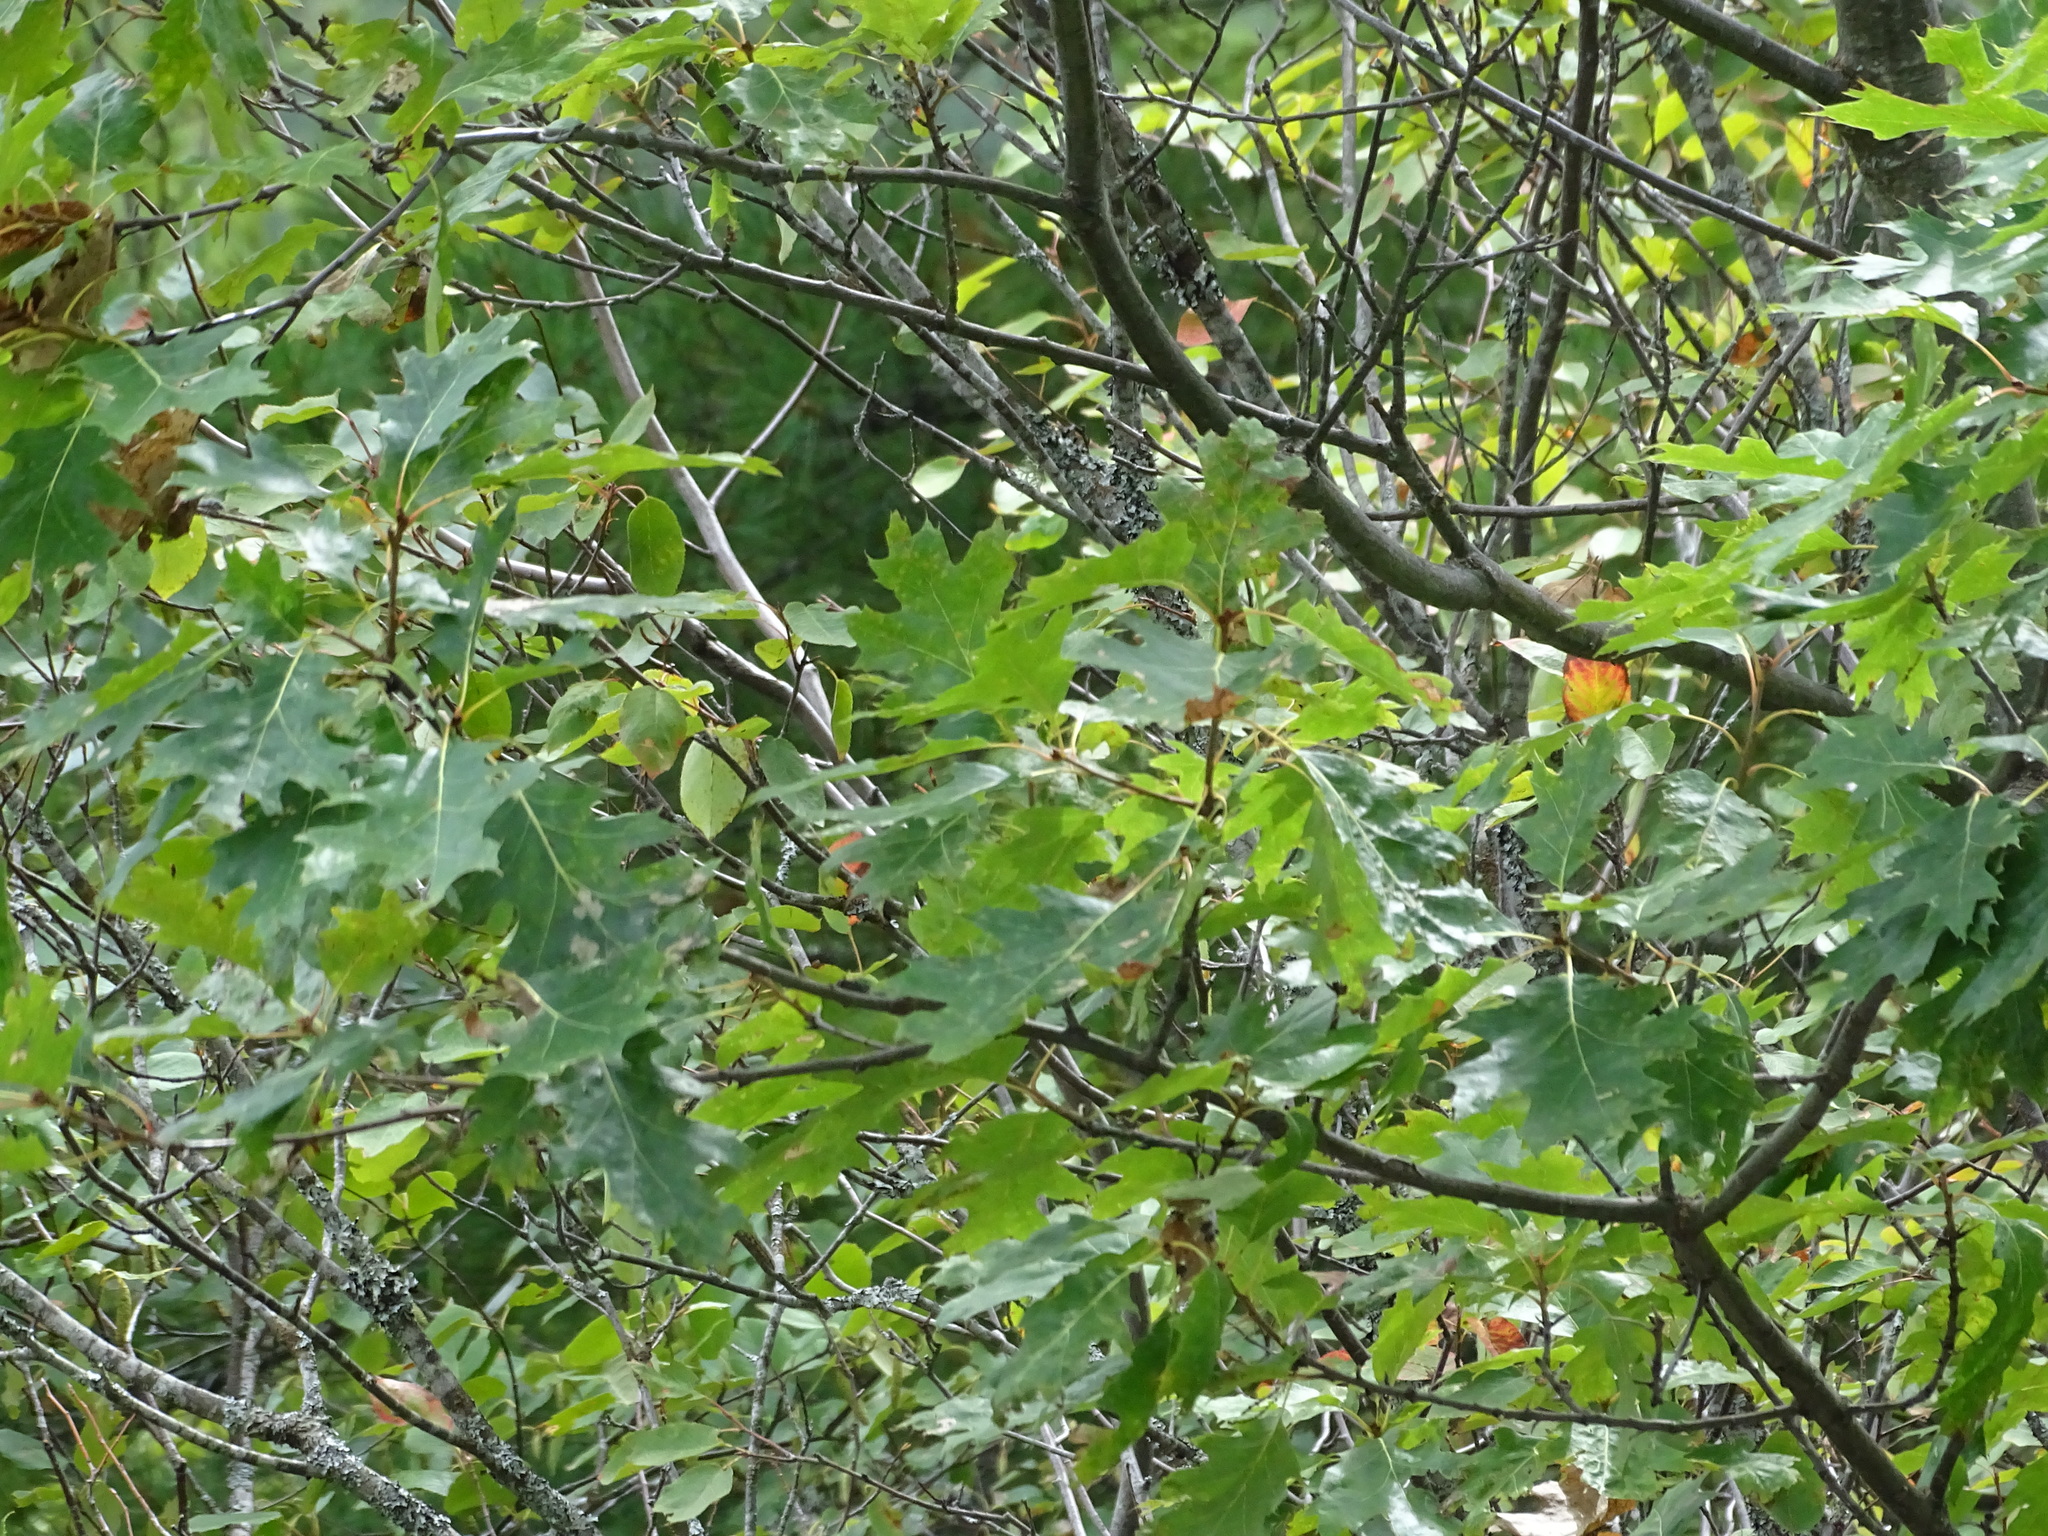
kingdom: Plantae
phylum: Tracheophyta
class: Magnoliopsida
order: Fagales
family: Fagaceae
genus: Quercus
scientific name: Quercus rubra
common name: Red oak
